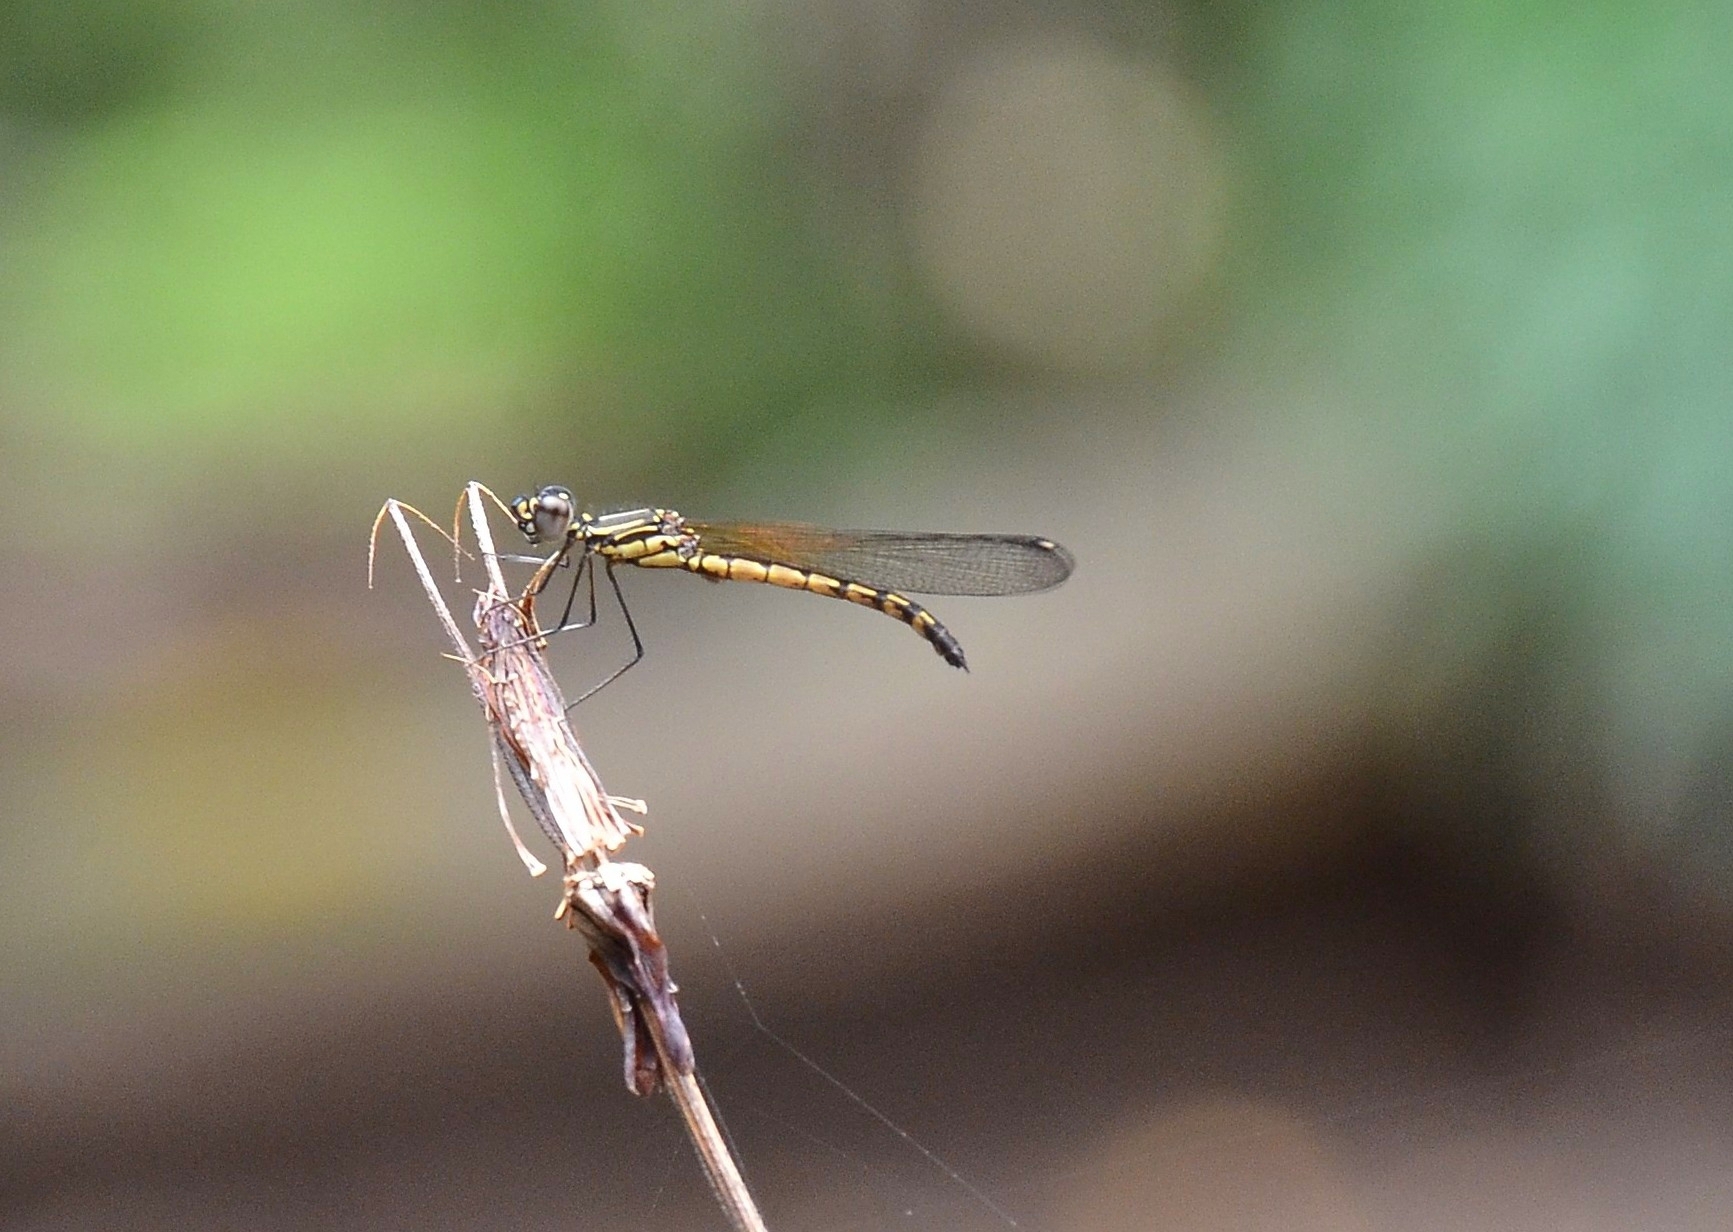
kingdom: Animalia
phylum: Arthropoda
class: Insecta
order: Odonata
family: Chlorocyphidae
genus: Libellago
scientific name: Libellago indica
